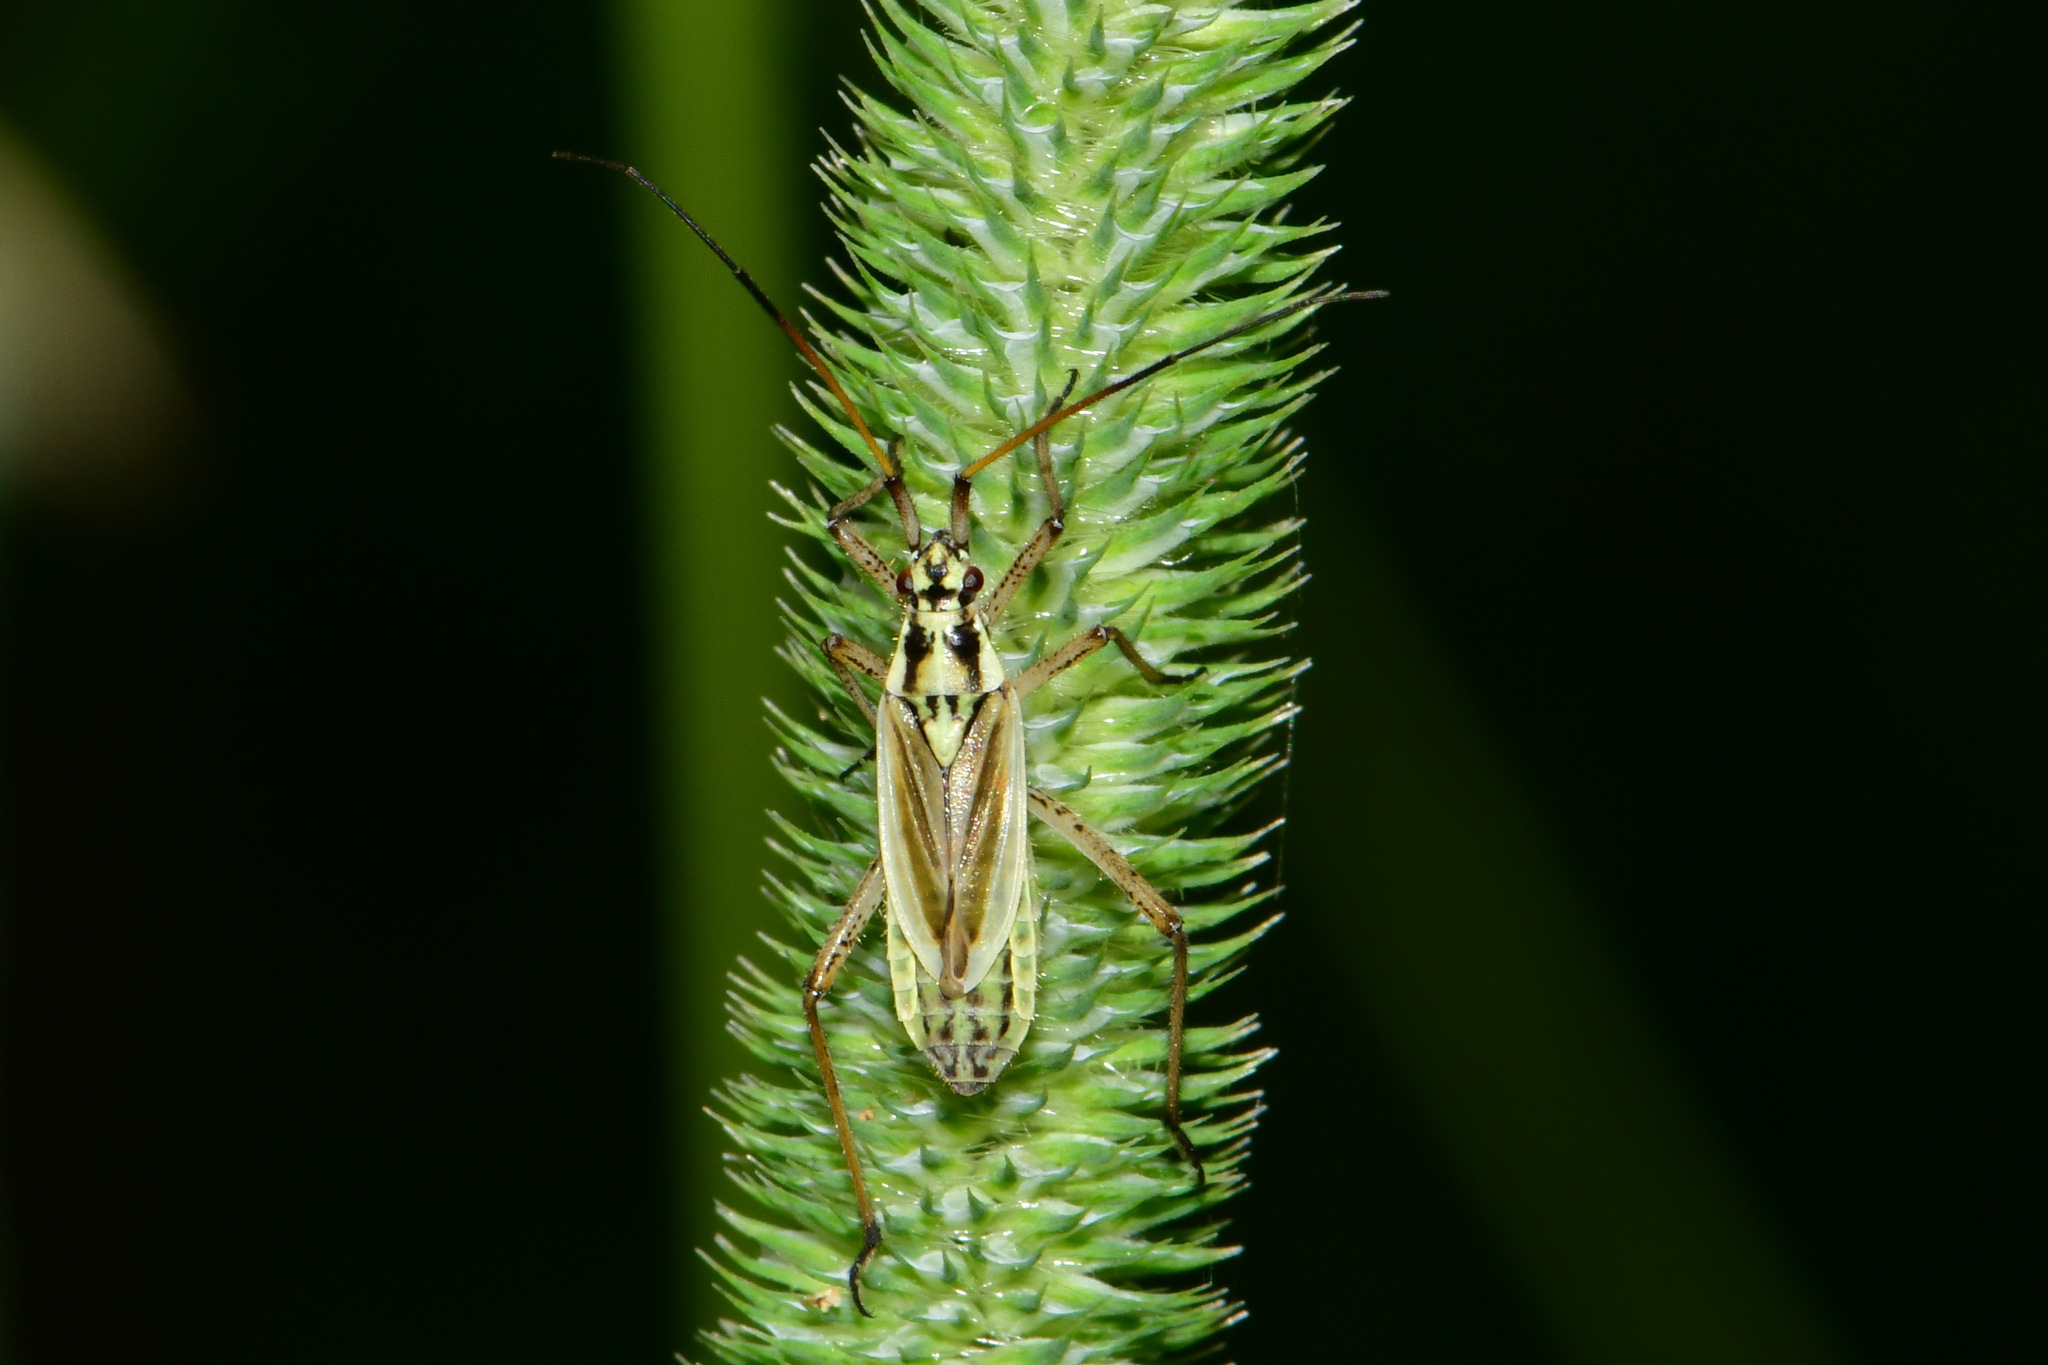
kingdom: Animalia
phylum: Arthropoda
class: Insecta
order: Hemiptera
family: Miridae
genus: Leptopterna
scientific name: Leptopterna dolabrata
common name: Meadow plant bug
